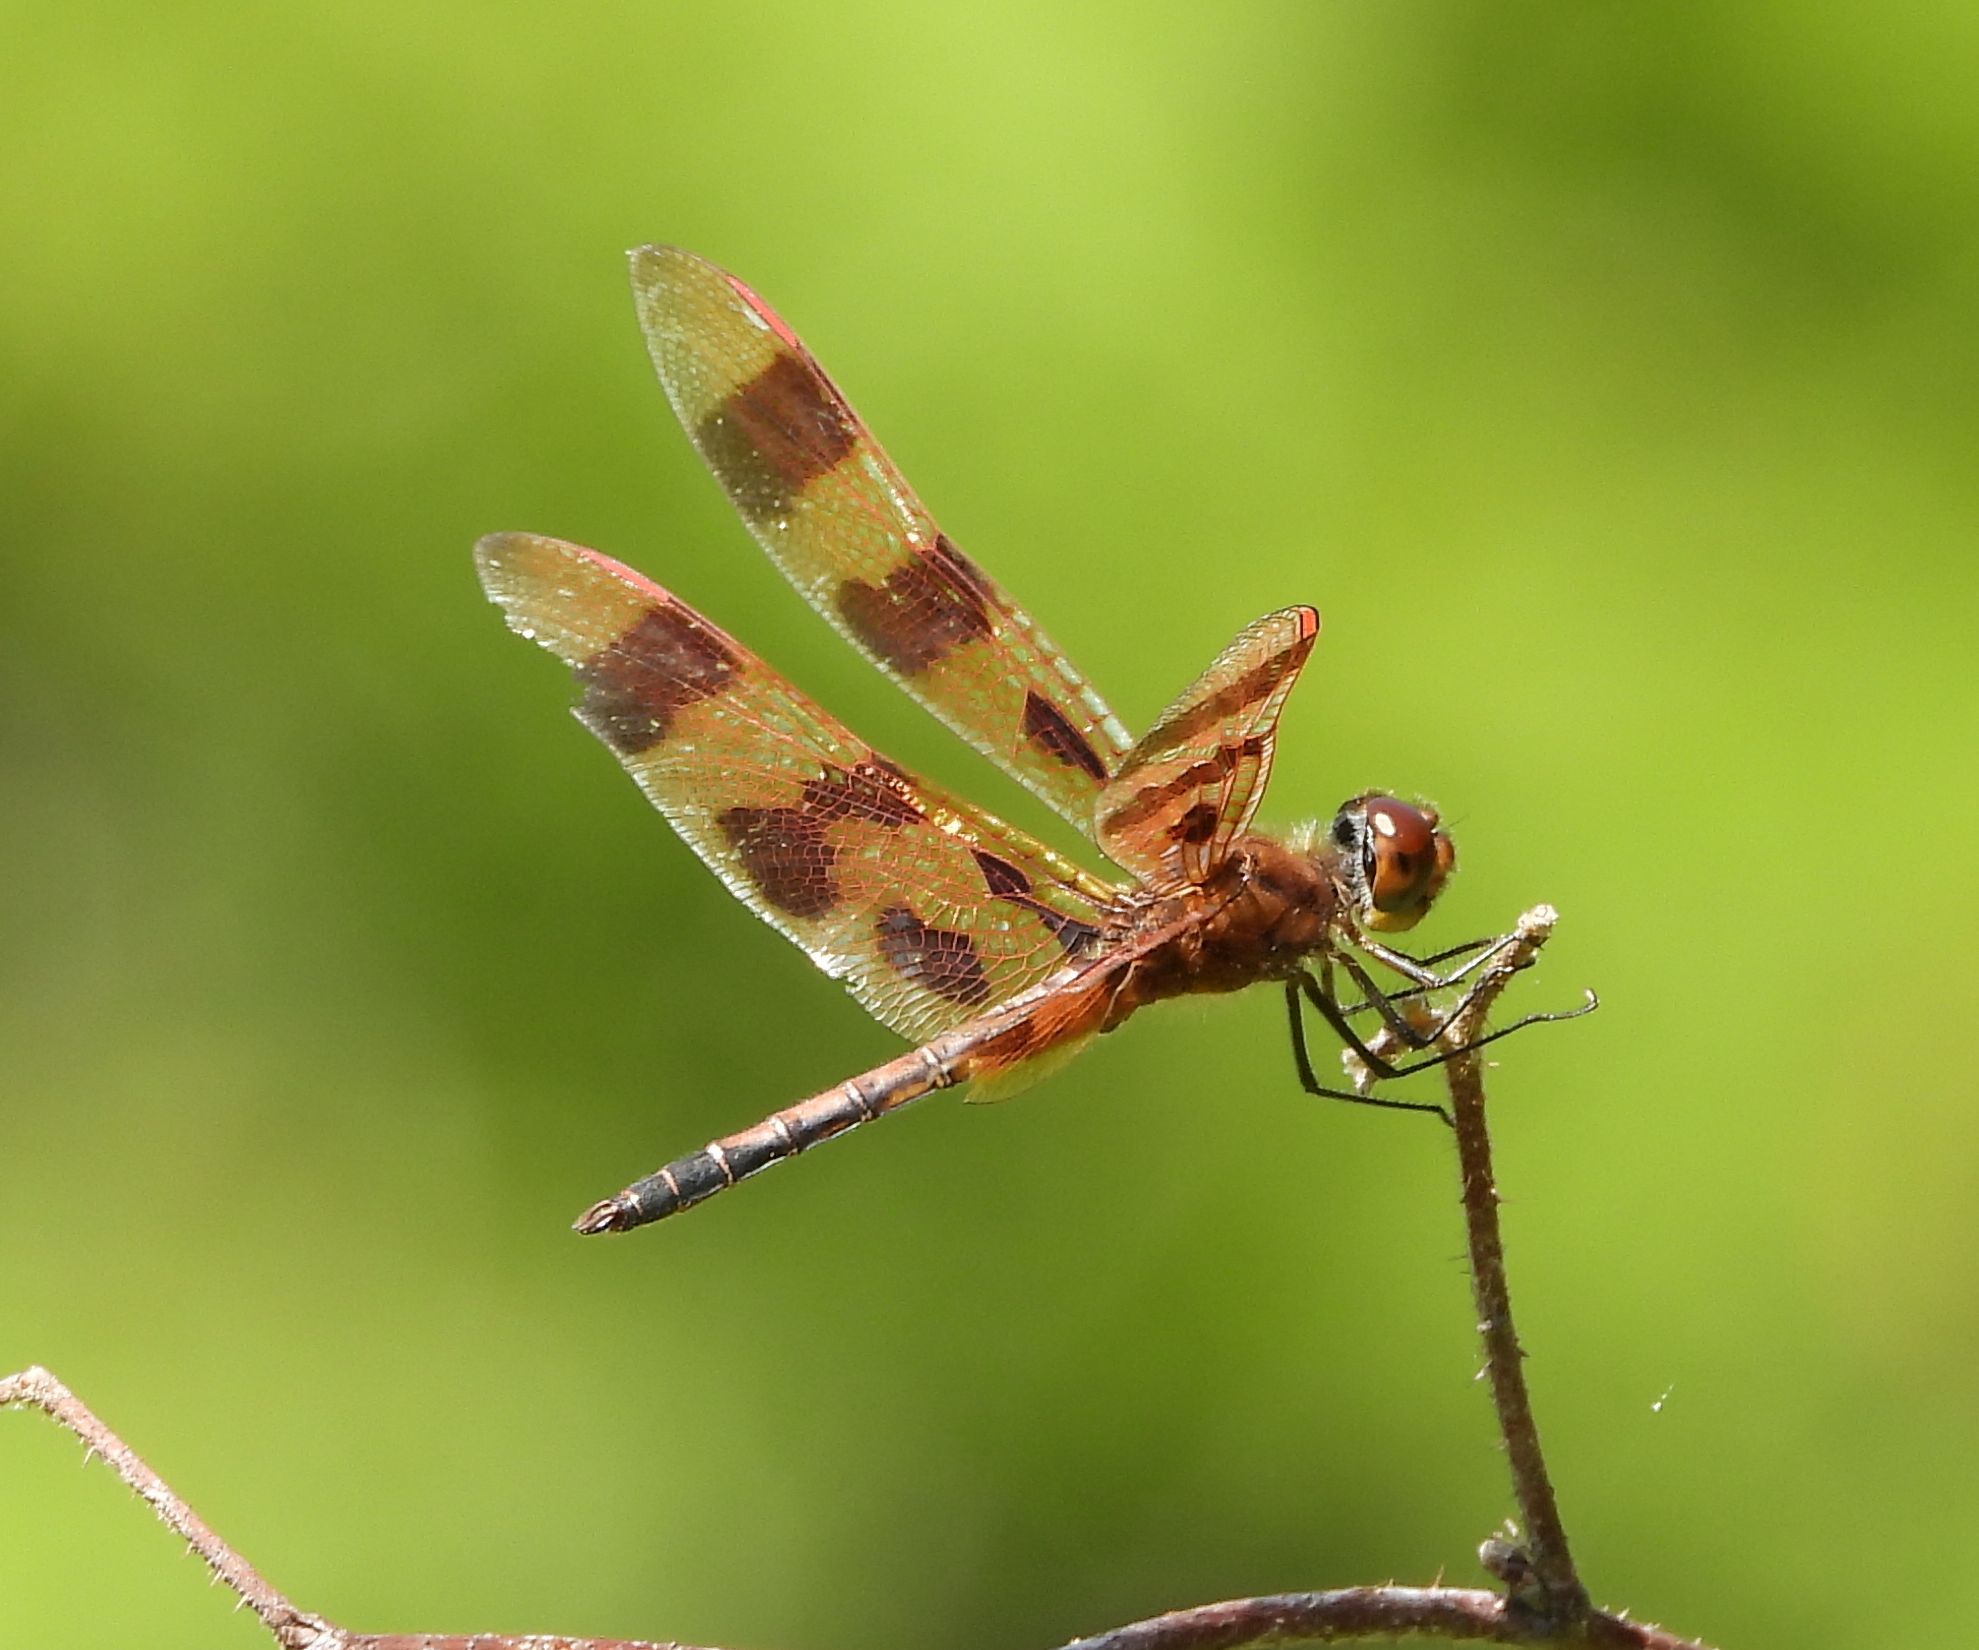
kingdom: Animalia
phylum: Arthropoda
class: Insecta
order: Odonata
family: Libellulidae
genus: Celithemis
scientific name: Celithemis eponina
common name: Halloween pennant
